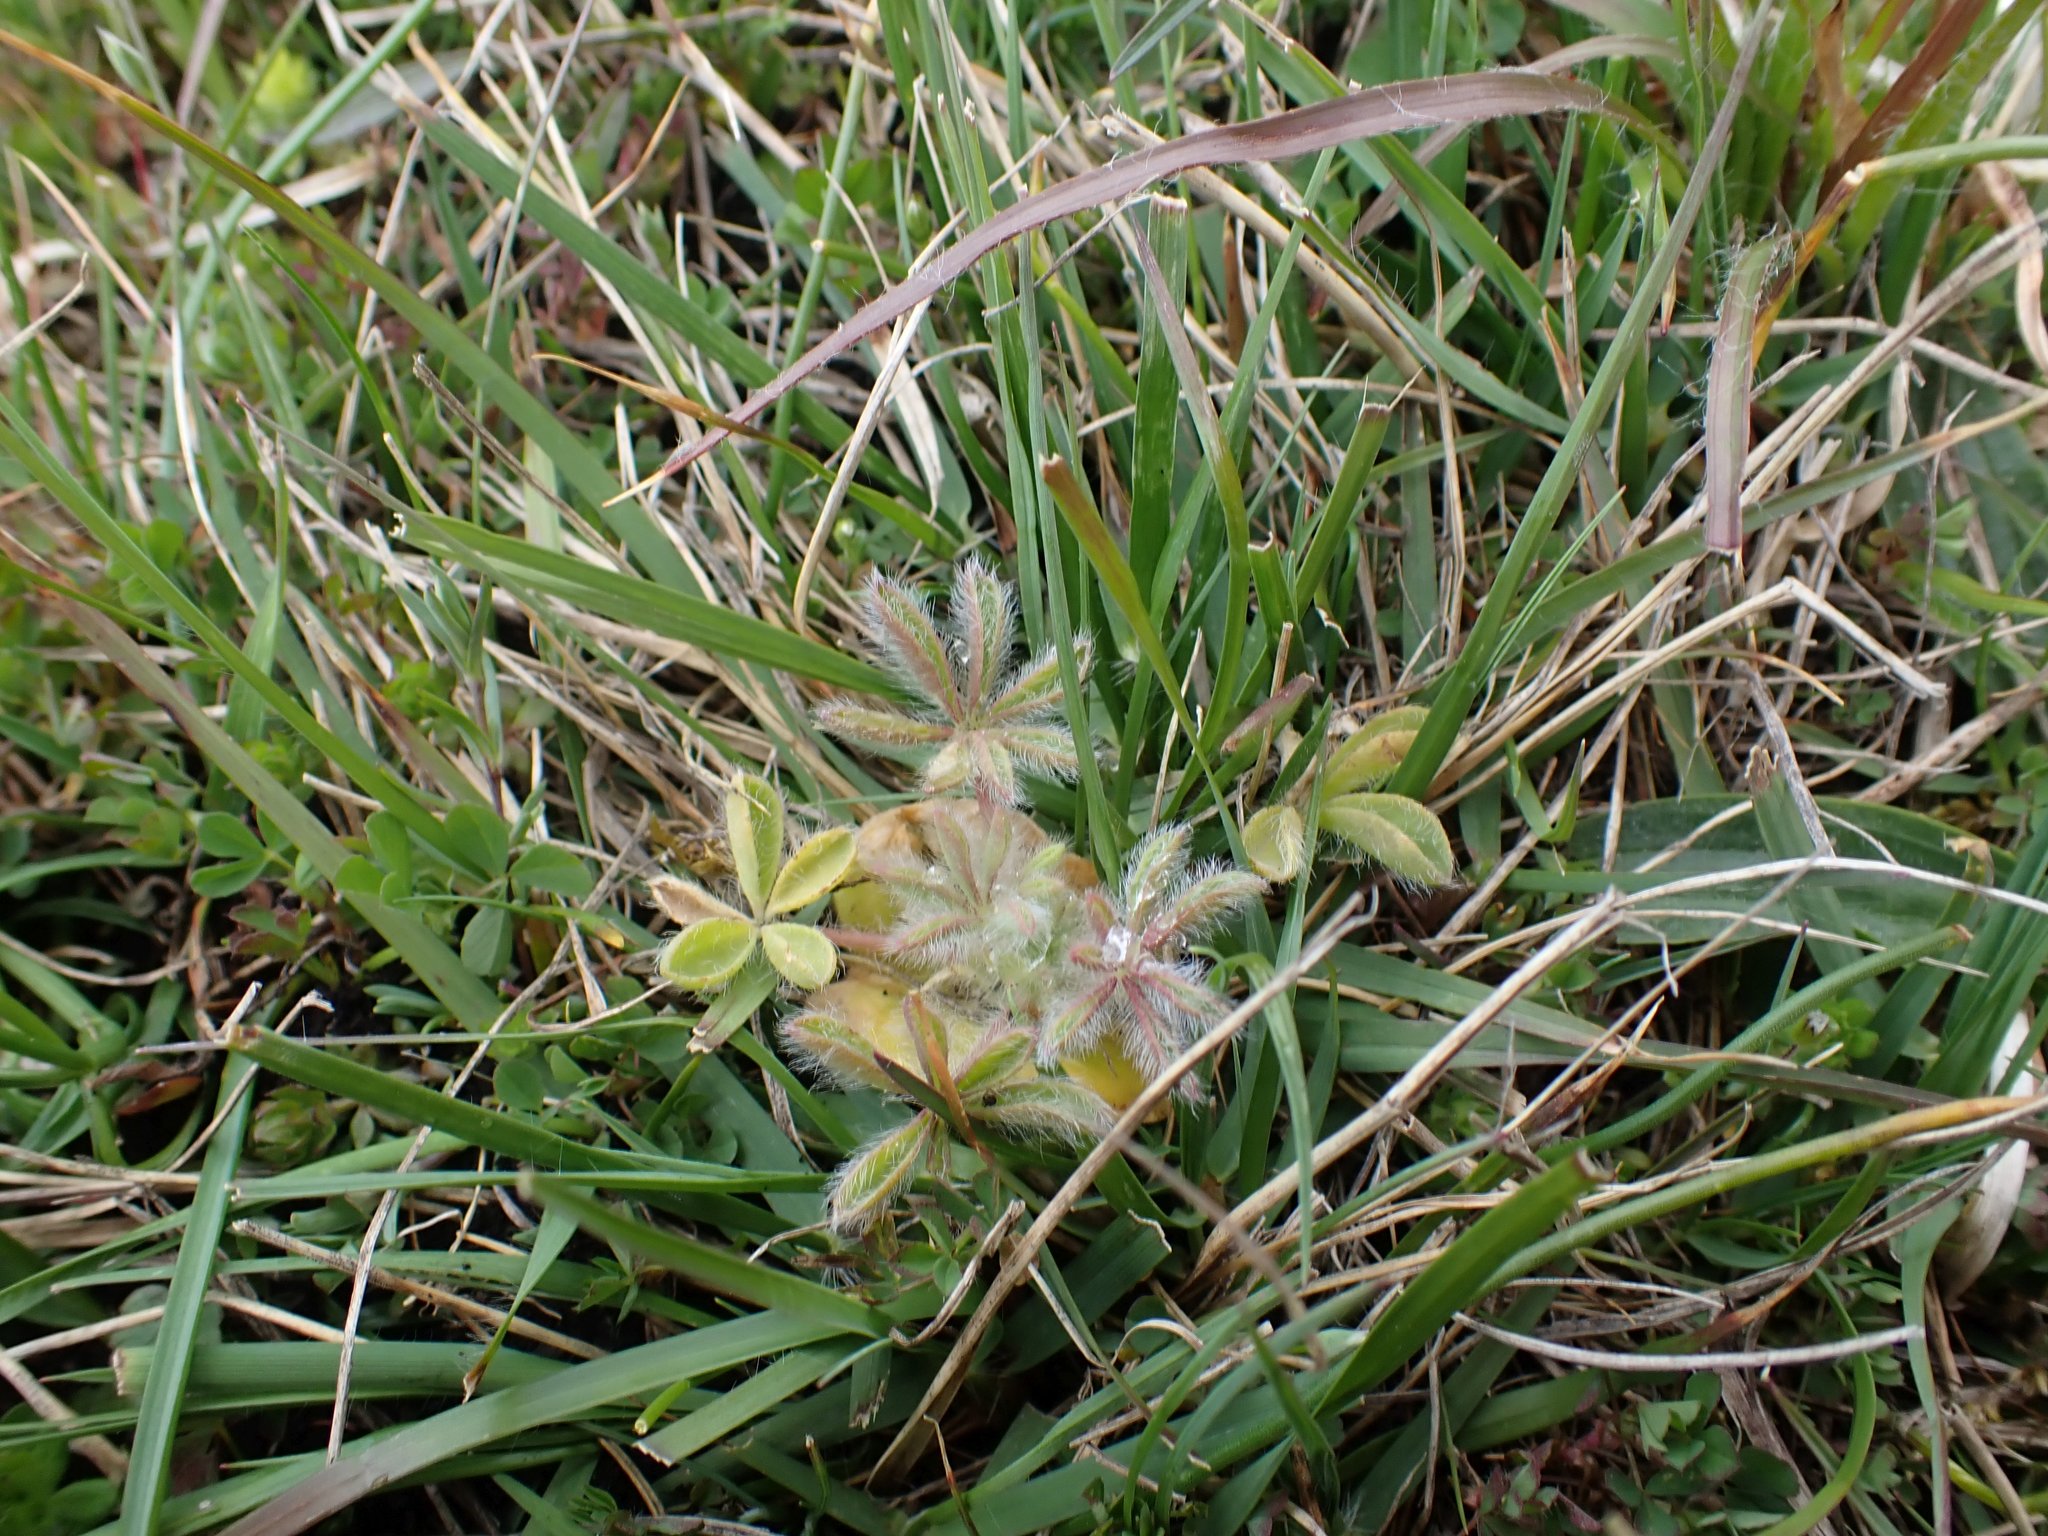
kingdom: Plantae
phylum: Tracheophyta
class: Magnoliopsida
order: Fabales
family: Fabaceae
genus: Lupinus
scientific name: Lupinus densiflorus
